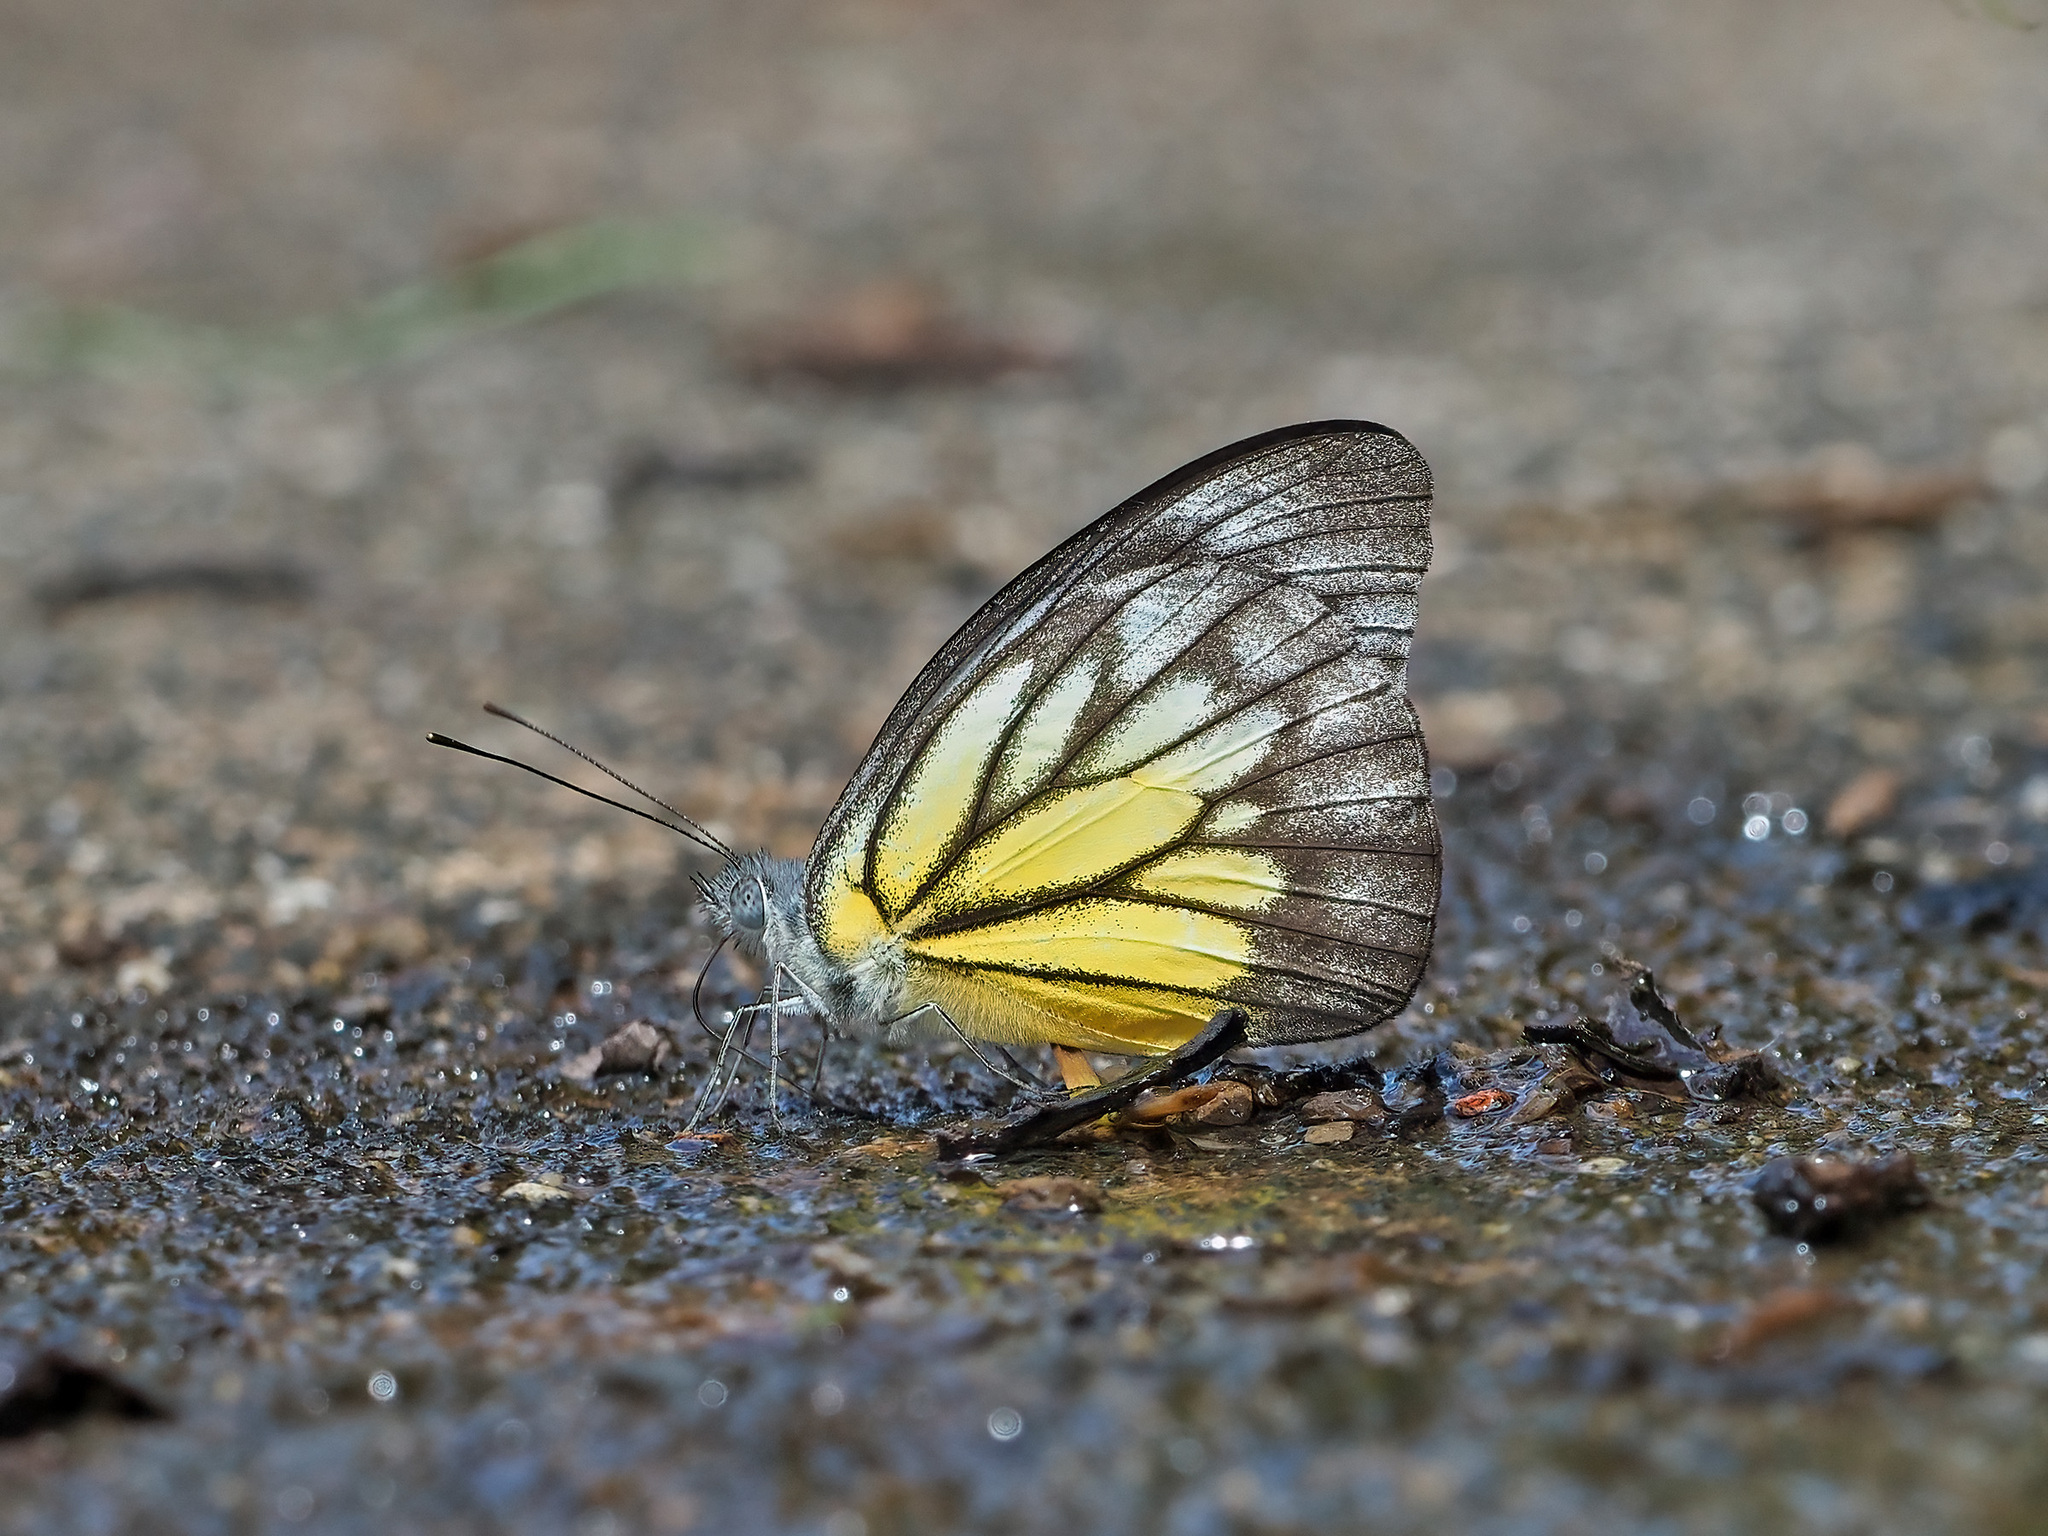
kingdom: Animalia
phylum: Arthropoda
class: Insecta
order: Lepidoptera
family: Pieridae
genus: Appias
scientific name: Appias cardena
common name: Yellow puffin
